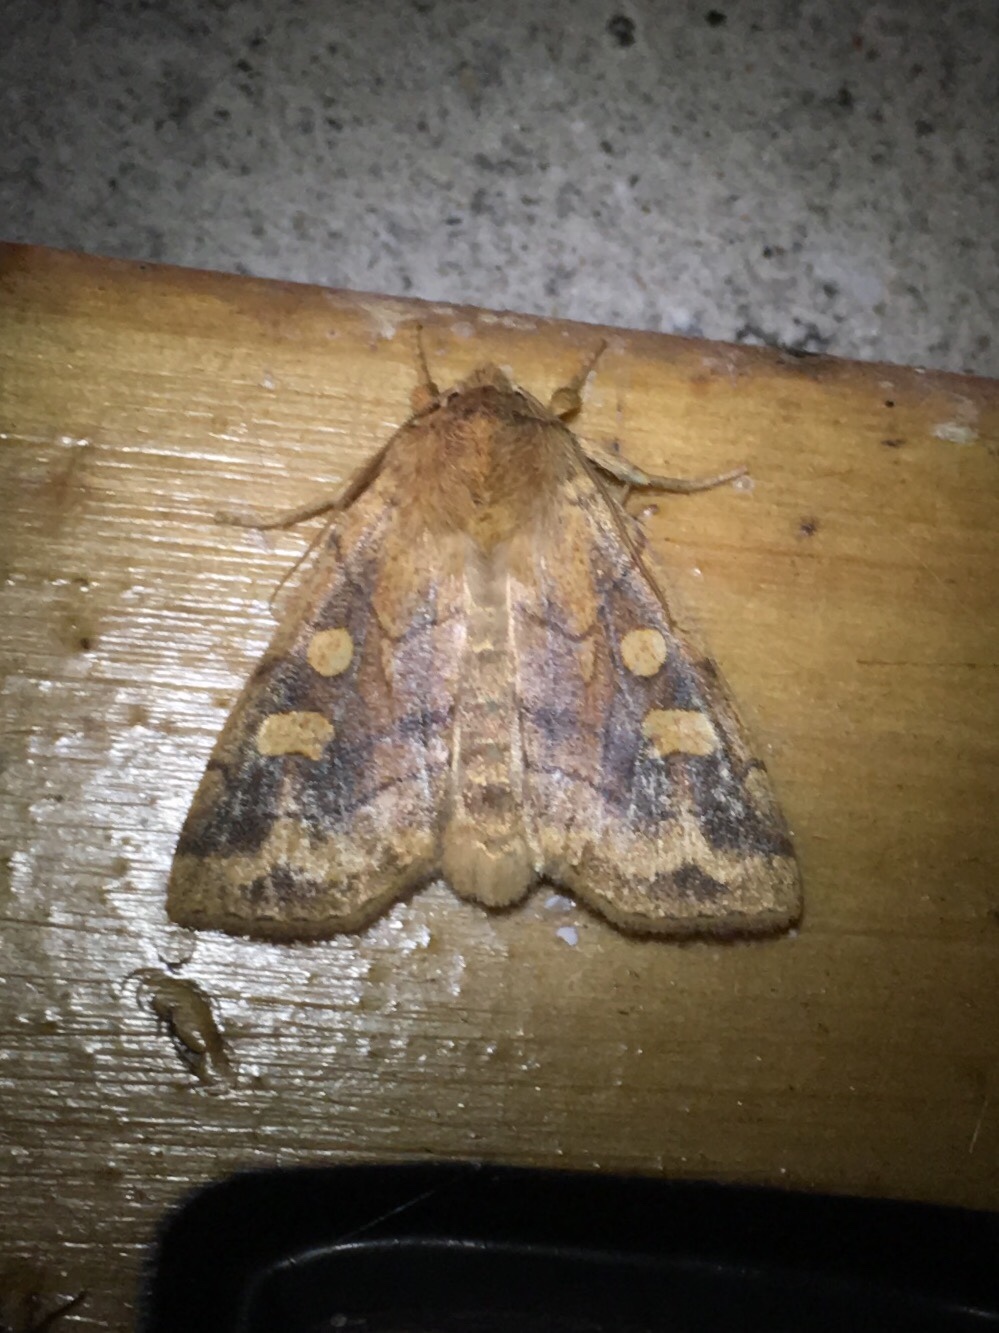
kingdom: Animalia
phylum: Arthropoda
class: Insecta
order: Lepidoptera
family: Noctuidae
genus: Enargia
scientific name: Enargia decolor
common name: Aspen twoleaf tier moth
